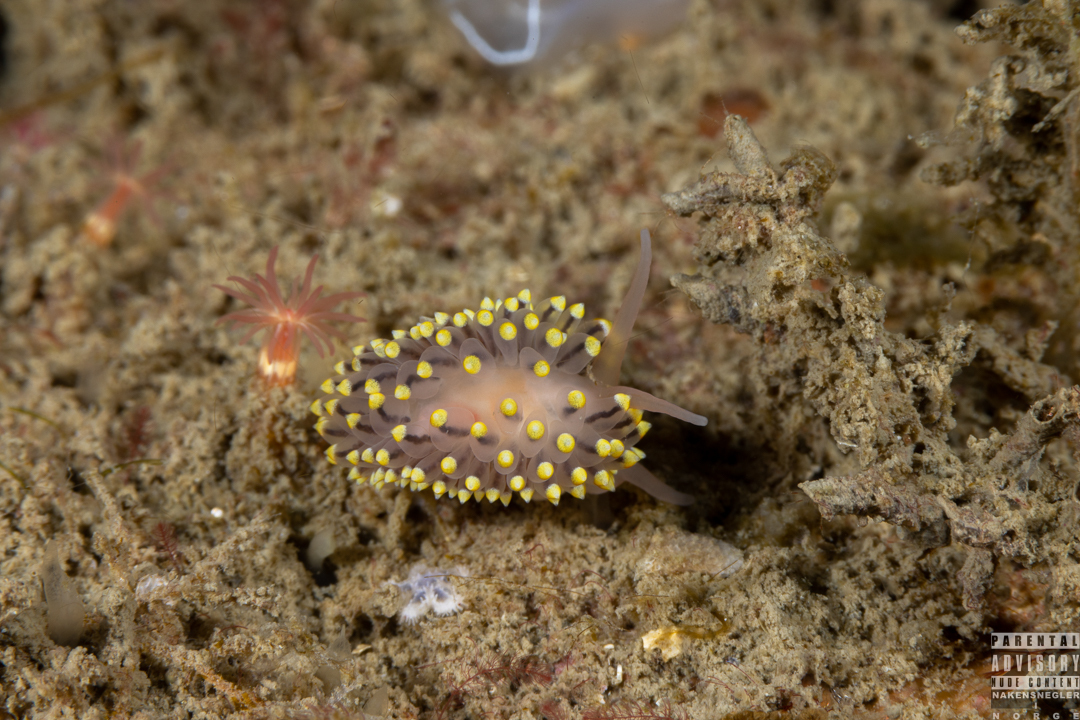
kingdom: Animalia
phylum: Mollusca
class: Gastropoda
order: Nudibranchia
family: Eubranchidae
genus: Eubranchus
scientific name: Eubranchus tricolor
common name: Painted balloon aeolis
